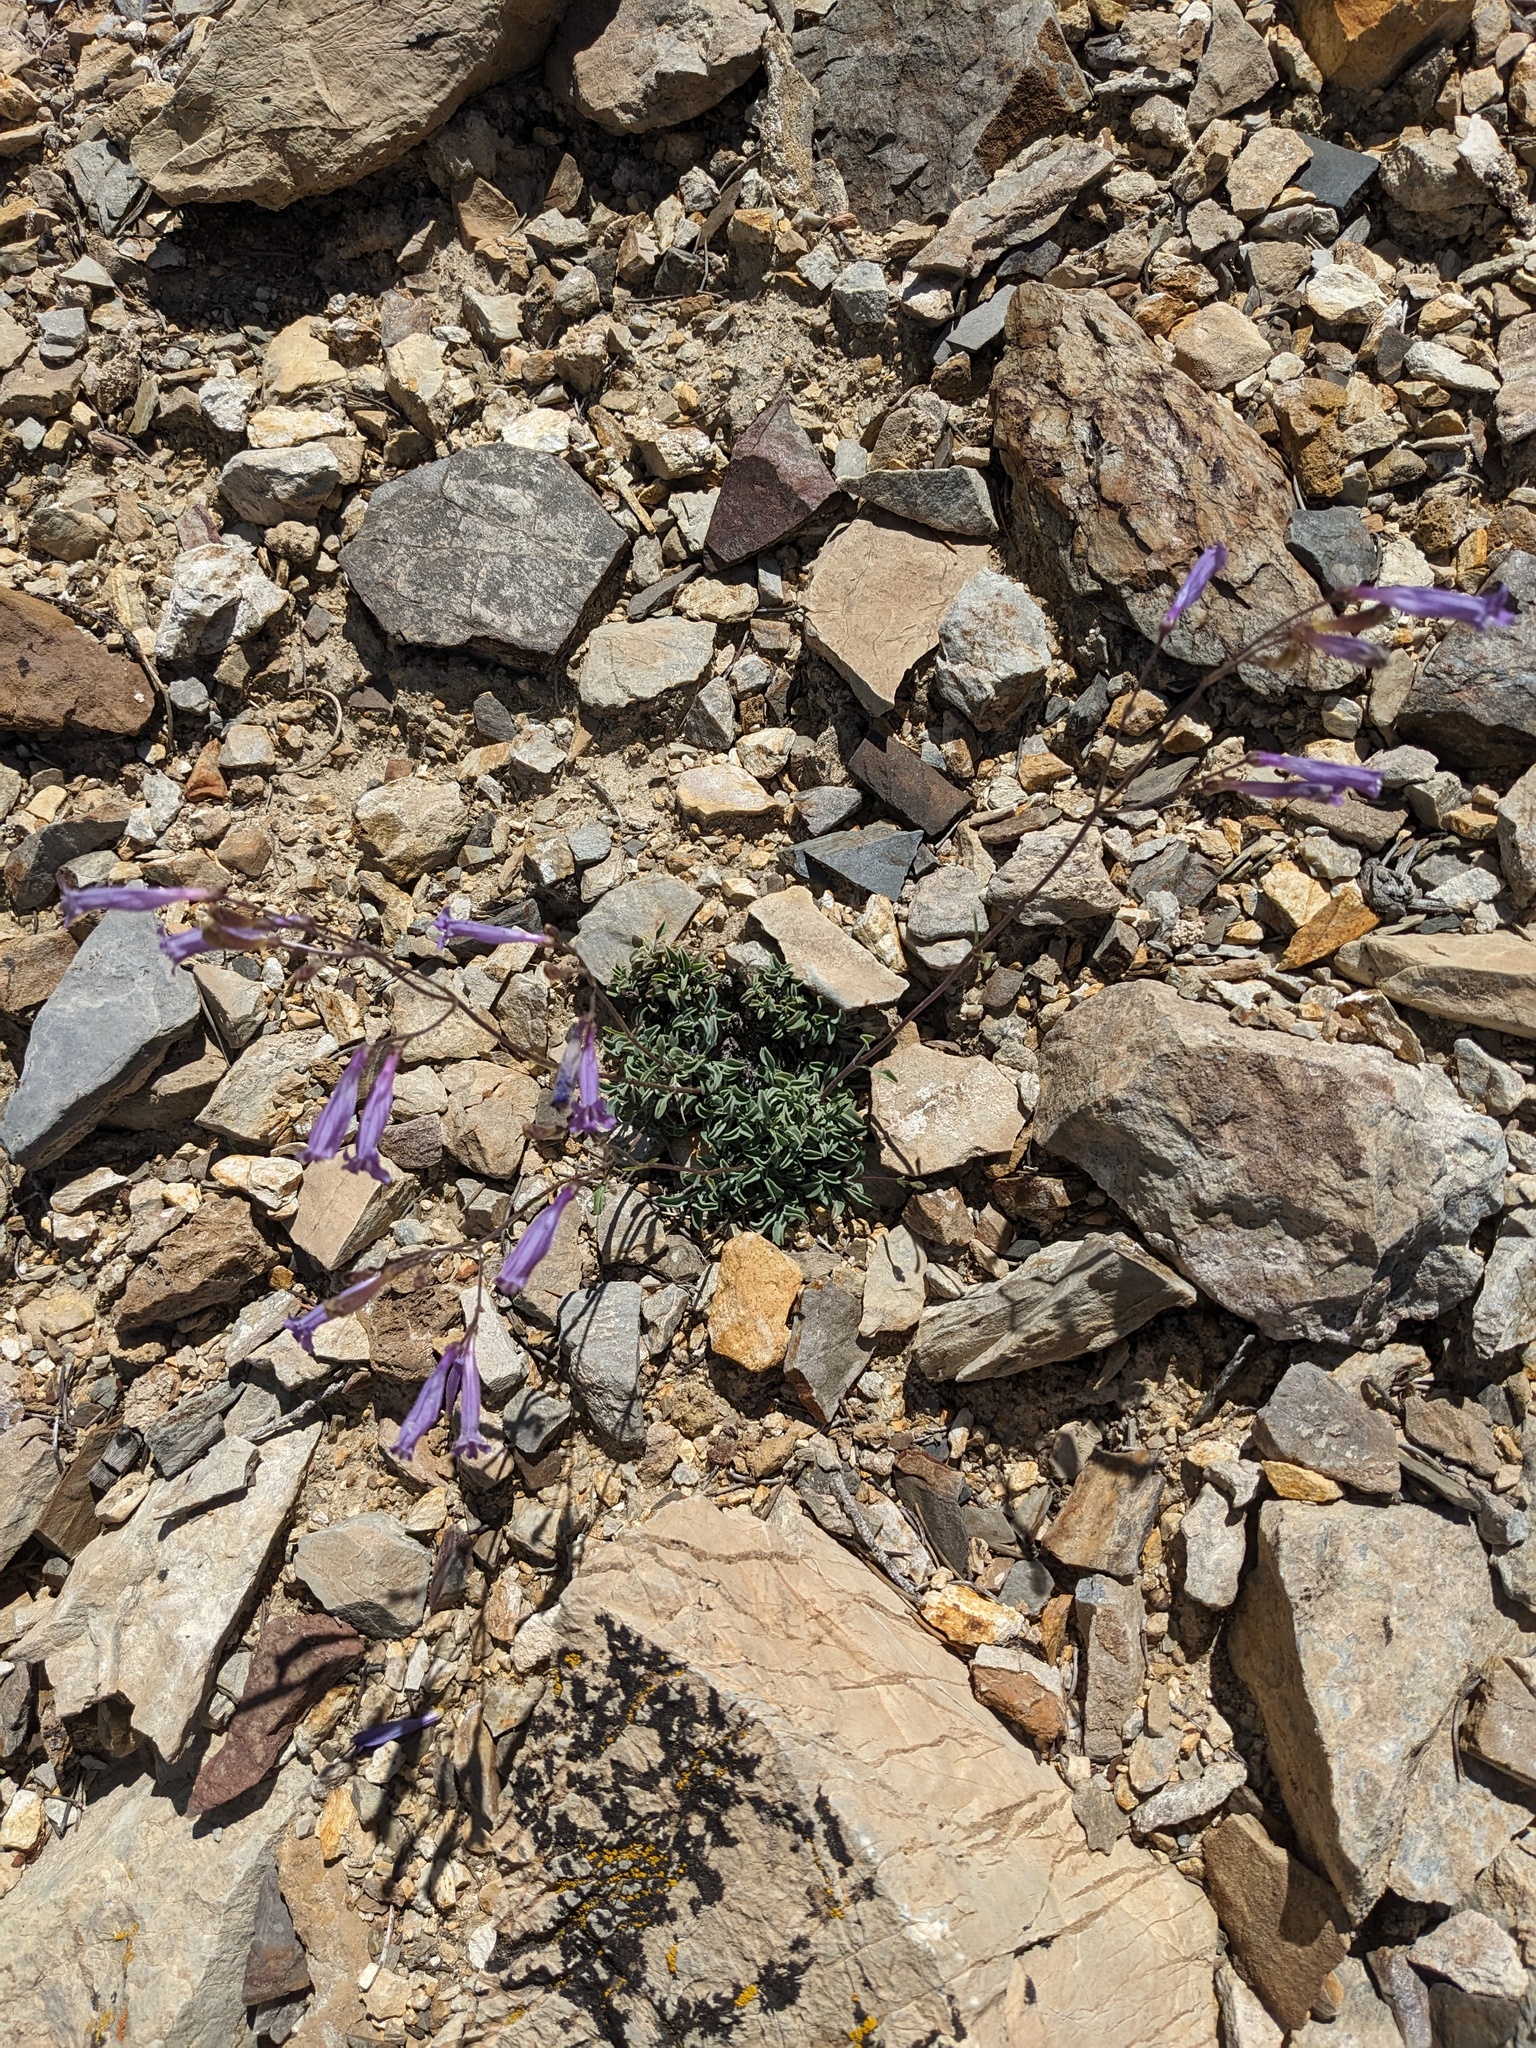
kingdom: Plantae
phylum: Tracheophyta
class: Magnoliopsida
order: Lamiales
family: Plantaginaceae
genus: Penstemon
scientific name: Penstemon scapoides
